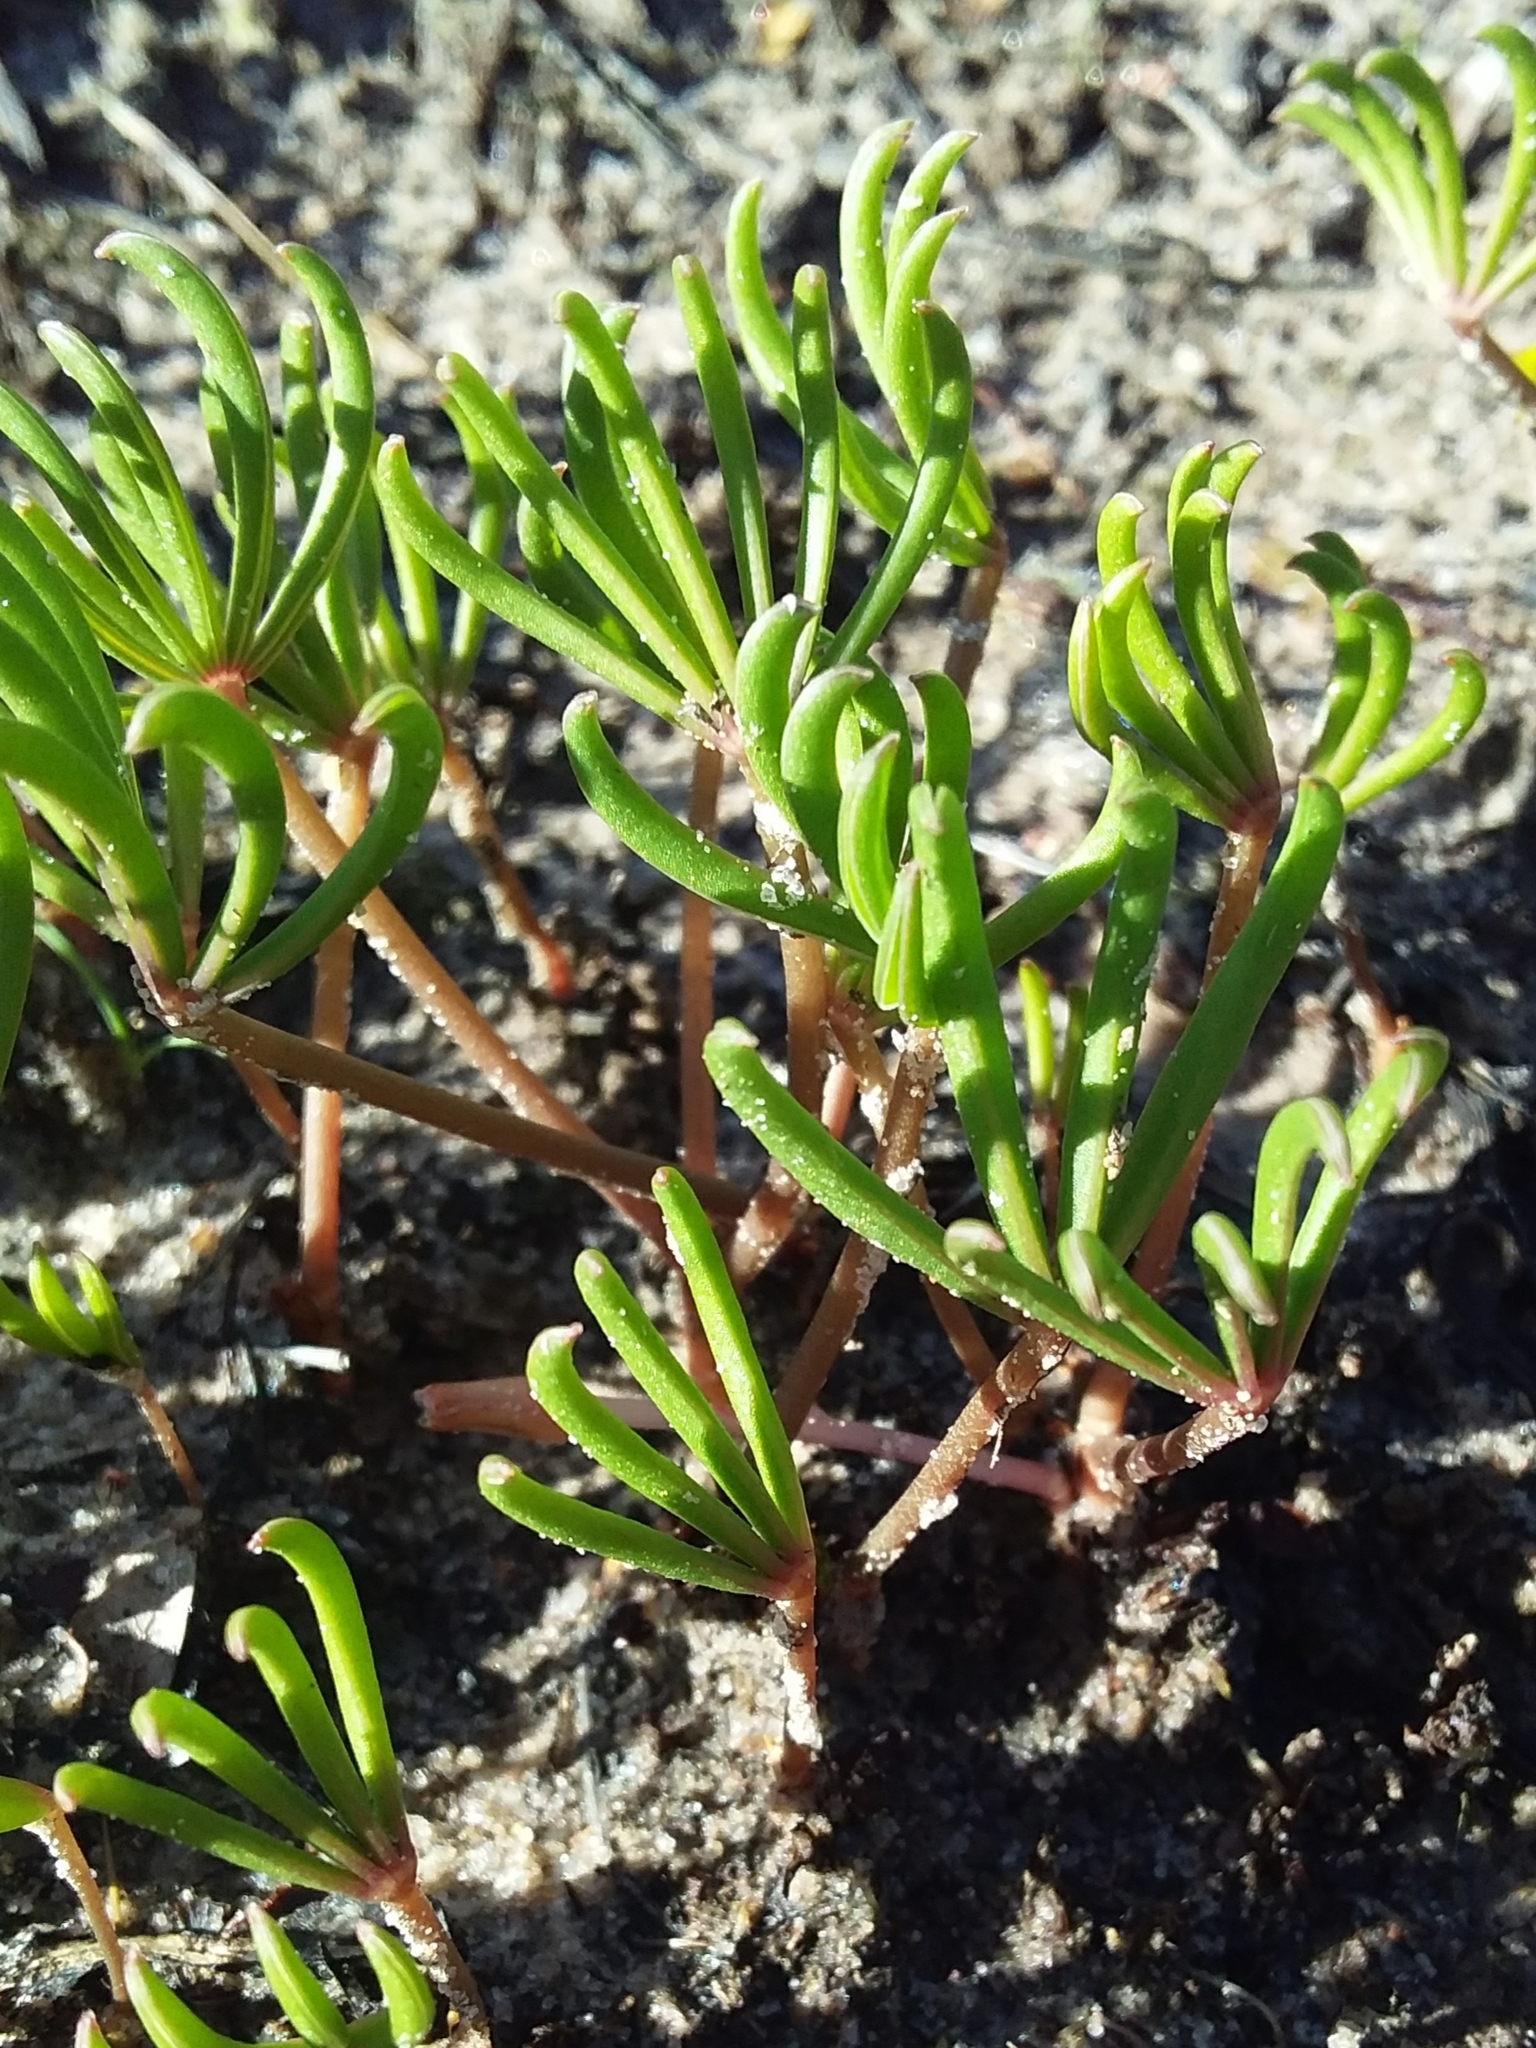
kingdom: Plantae
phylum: Tracheophyta
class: Magnoliopsida
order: Oxalidales
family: Oxalidaceae
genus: Oxalis
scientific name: Oxalis flava
